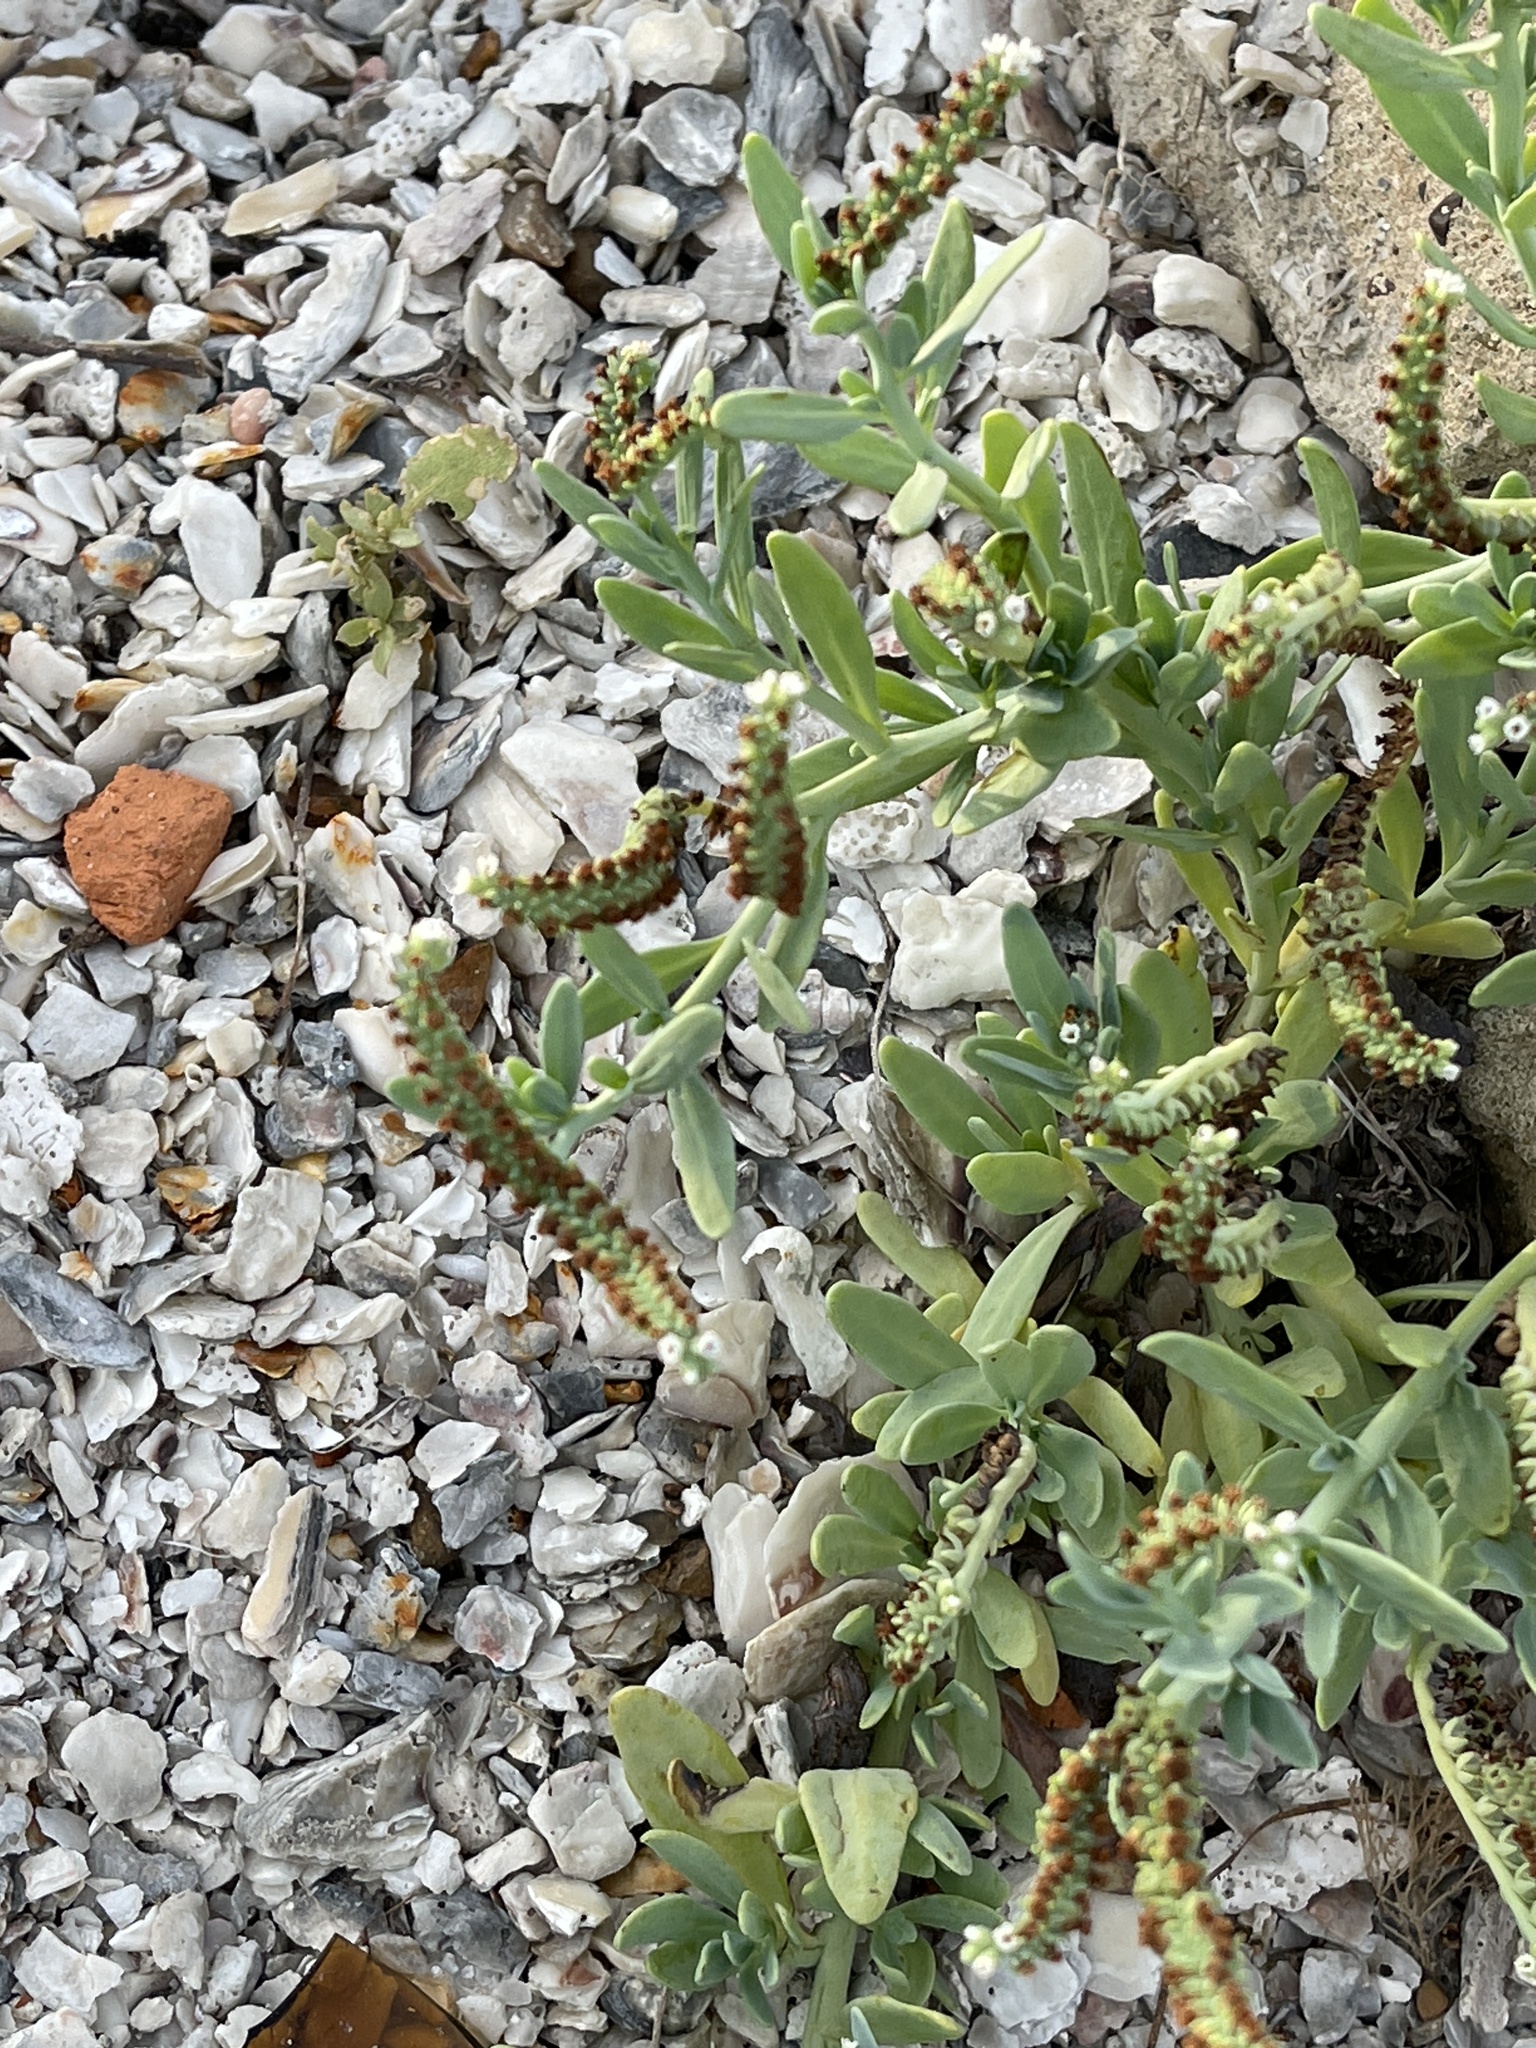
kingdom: Plantae
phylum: Tracheophyta
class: Magnoliopsida
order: Boraginales
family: Heliotropiaceae
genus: Heliotropium
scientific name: Heliotropium curassavicum
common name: Seaside heliotrope
